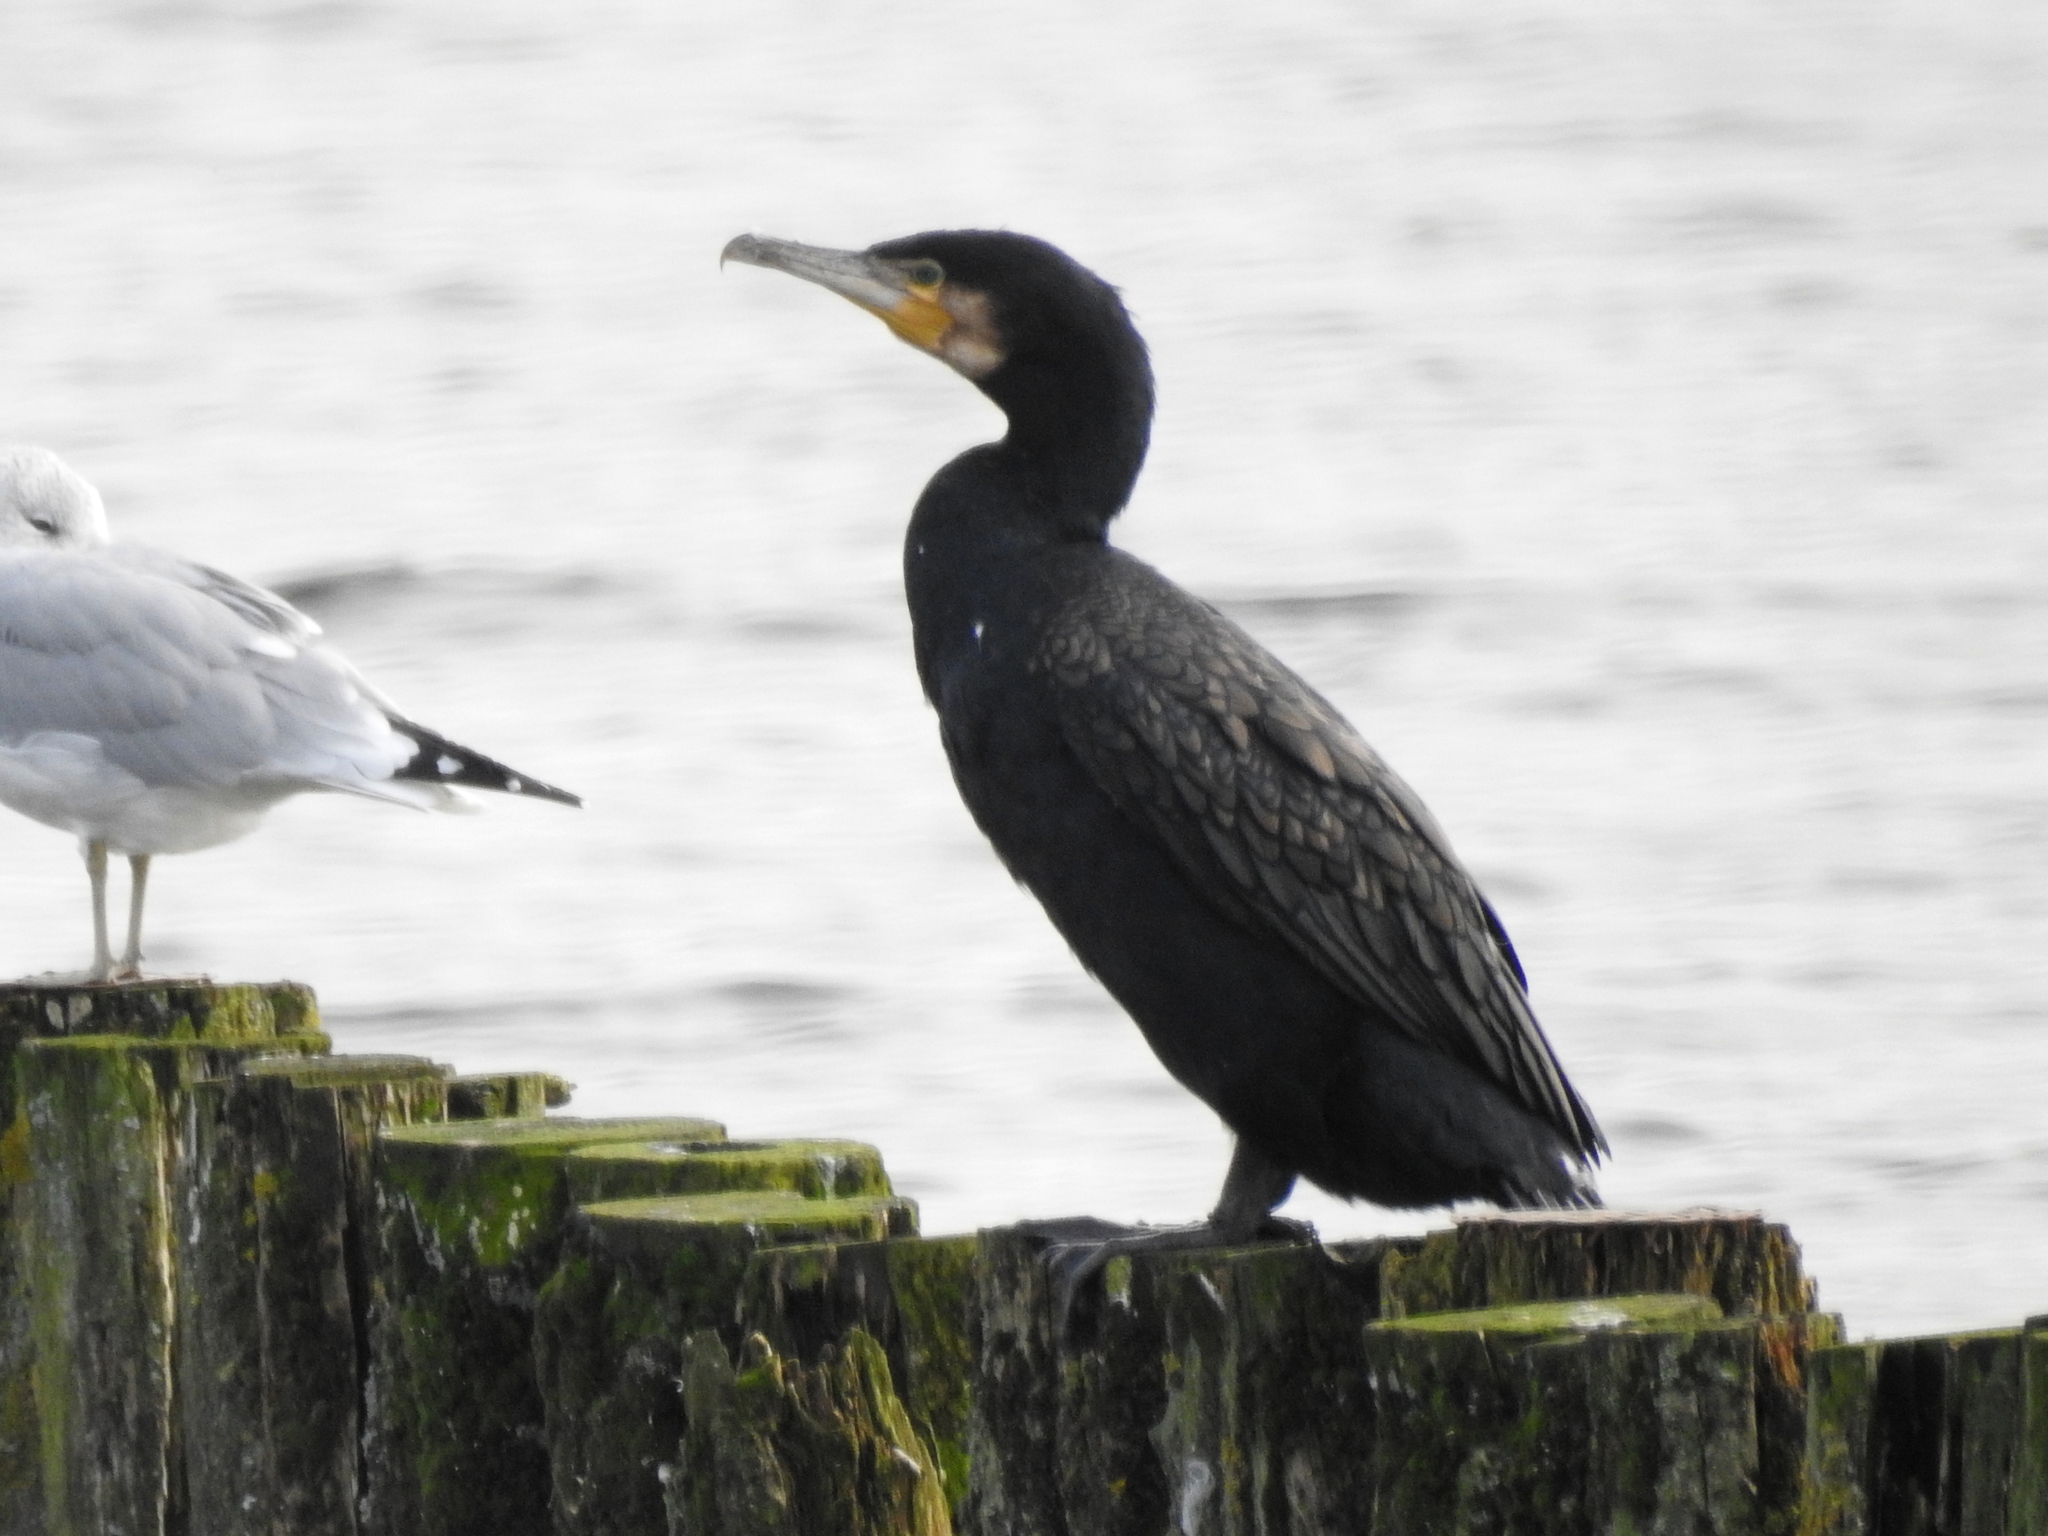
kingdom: Animalia
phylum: Chordata
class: Aves
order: Suliformes
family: Phalacrocoracidae
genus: Phalacrocorax
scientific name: Phalacrocorax carbo
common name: Great cormorant
